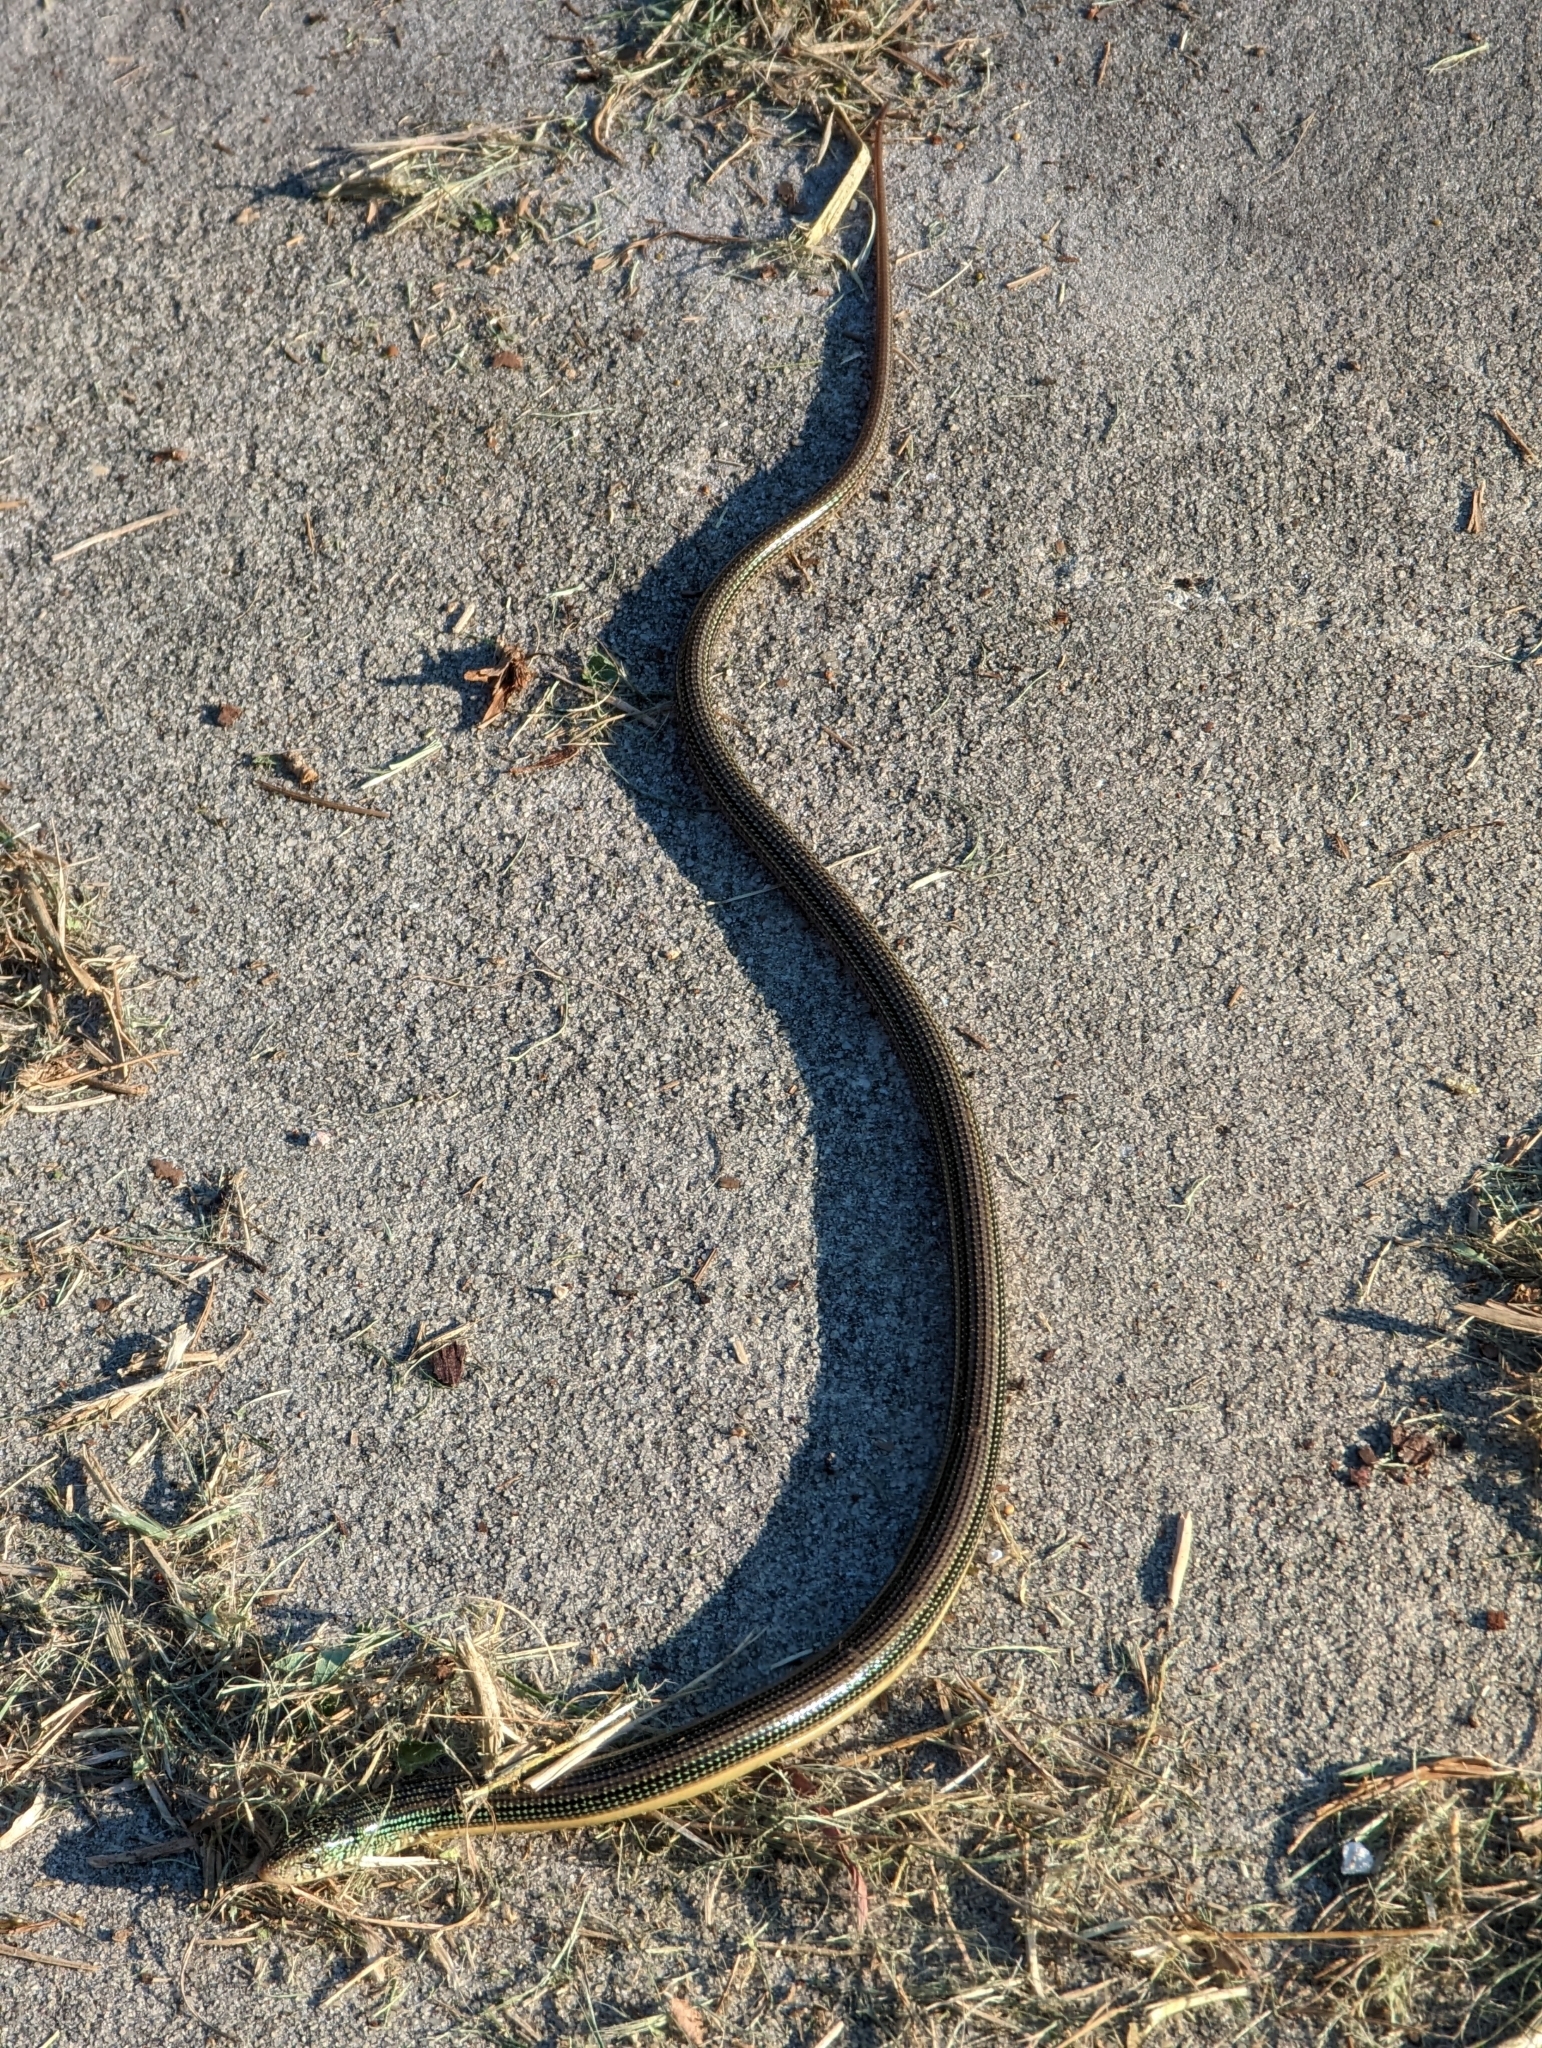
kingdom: Animalia
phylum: Chordata
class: Squamata
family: Anguidae
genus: Ophisaurus
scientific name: Ophisaurus ventralis
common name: Eastern glass lizard
